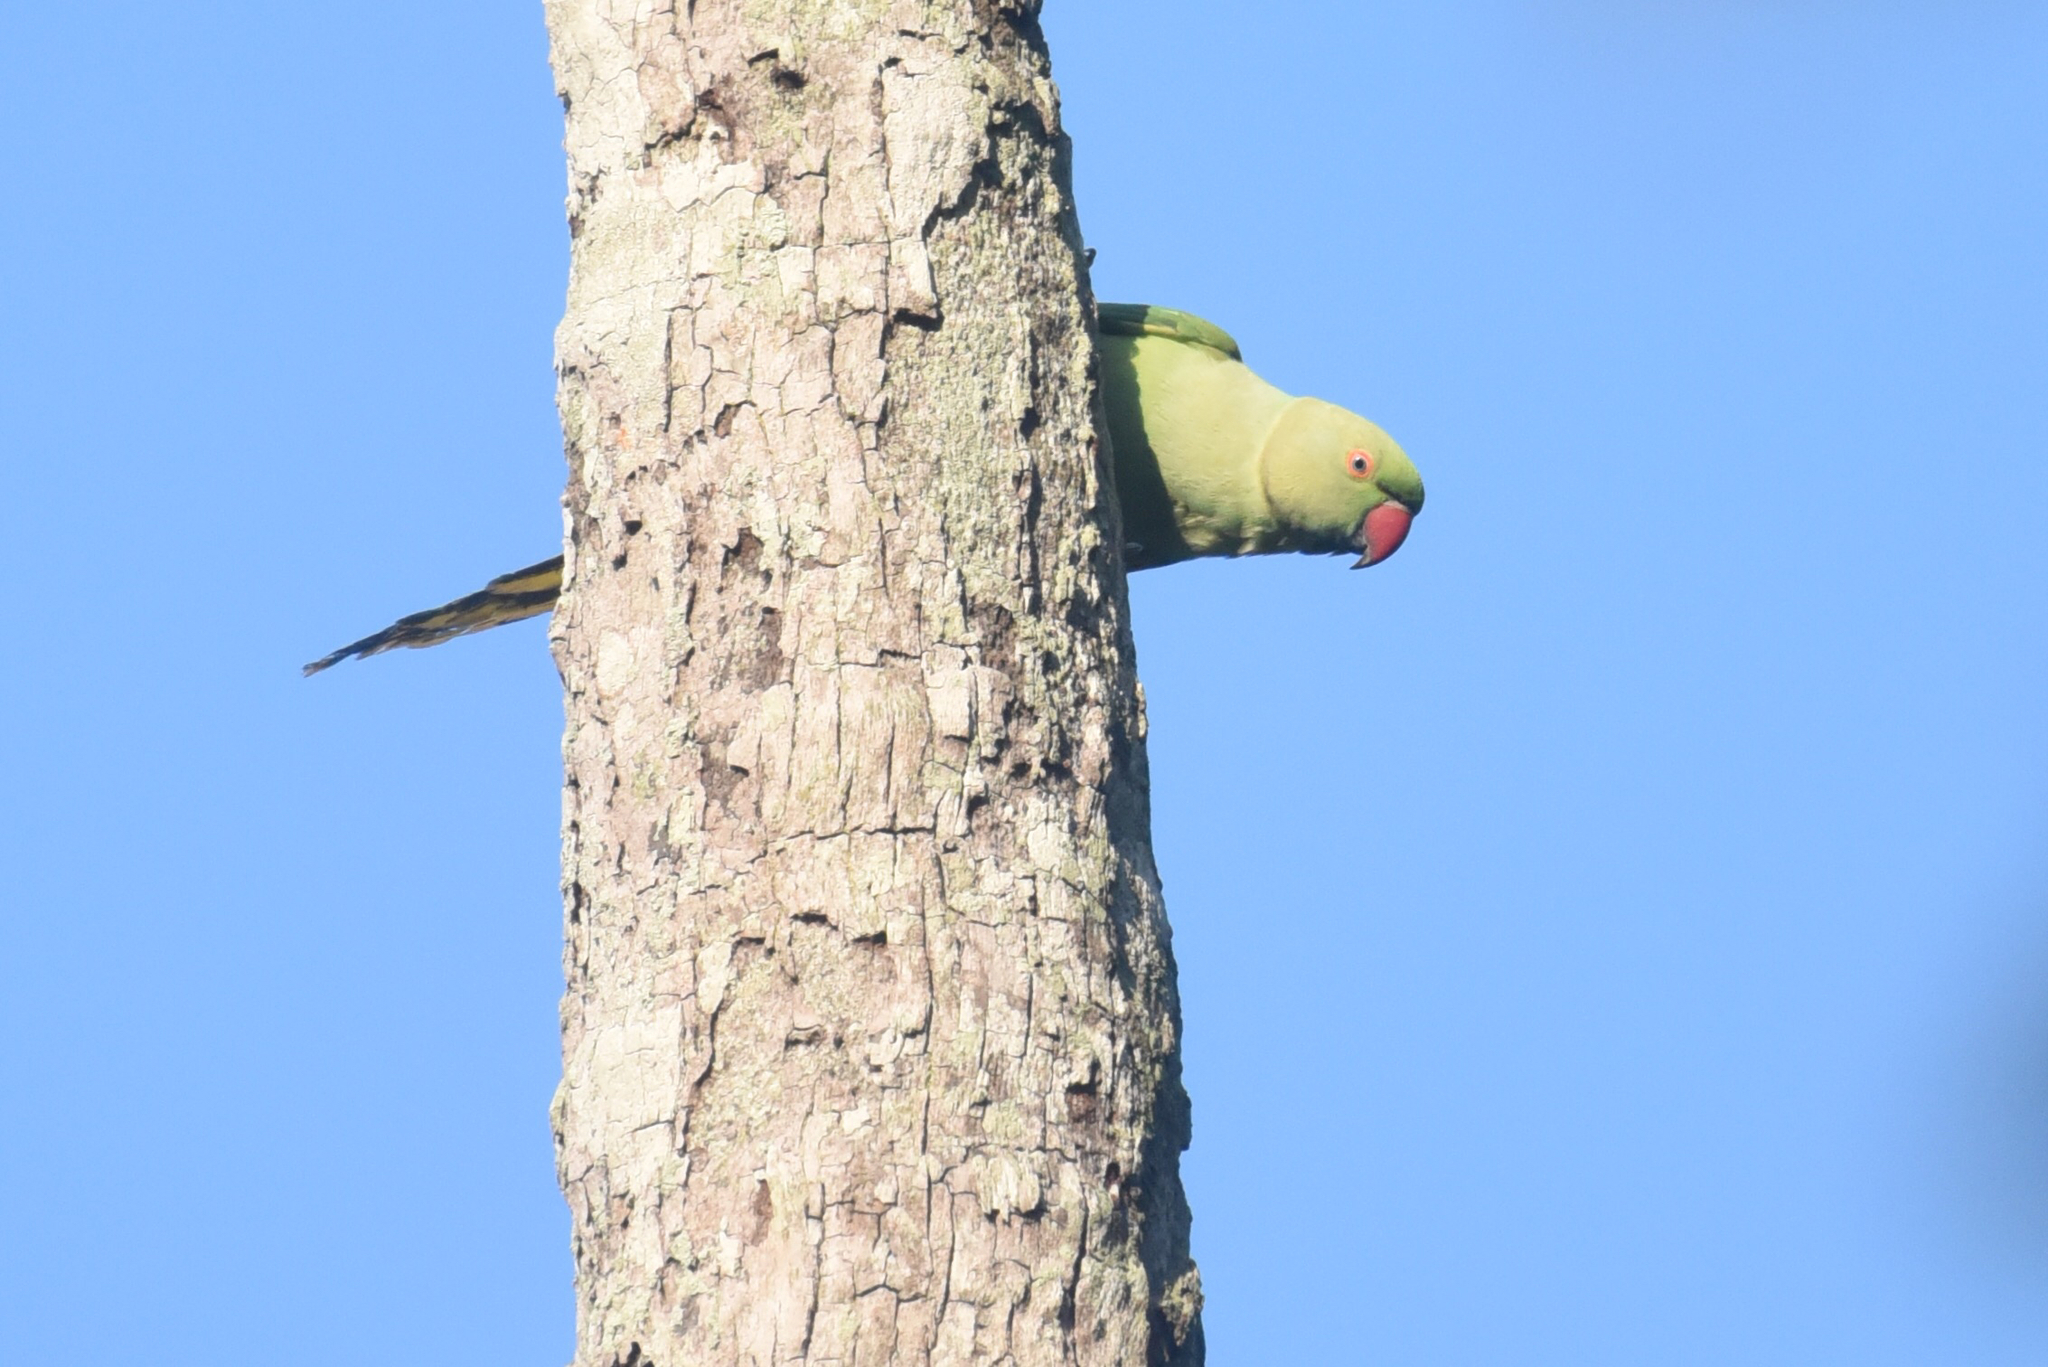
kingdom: Animalia
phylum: Chordata
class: Aves
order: Psittaciformes
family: Psittacidae
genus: Psittacula
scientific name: Psittacula krameri
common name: Rose-ringed parakeet
